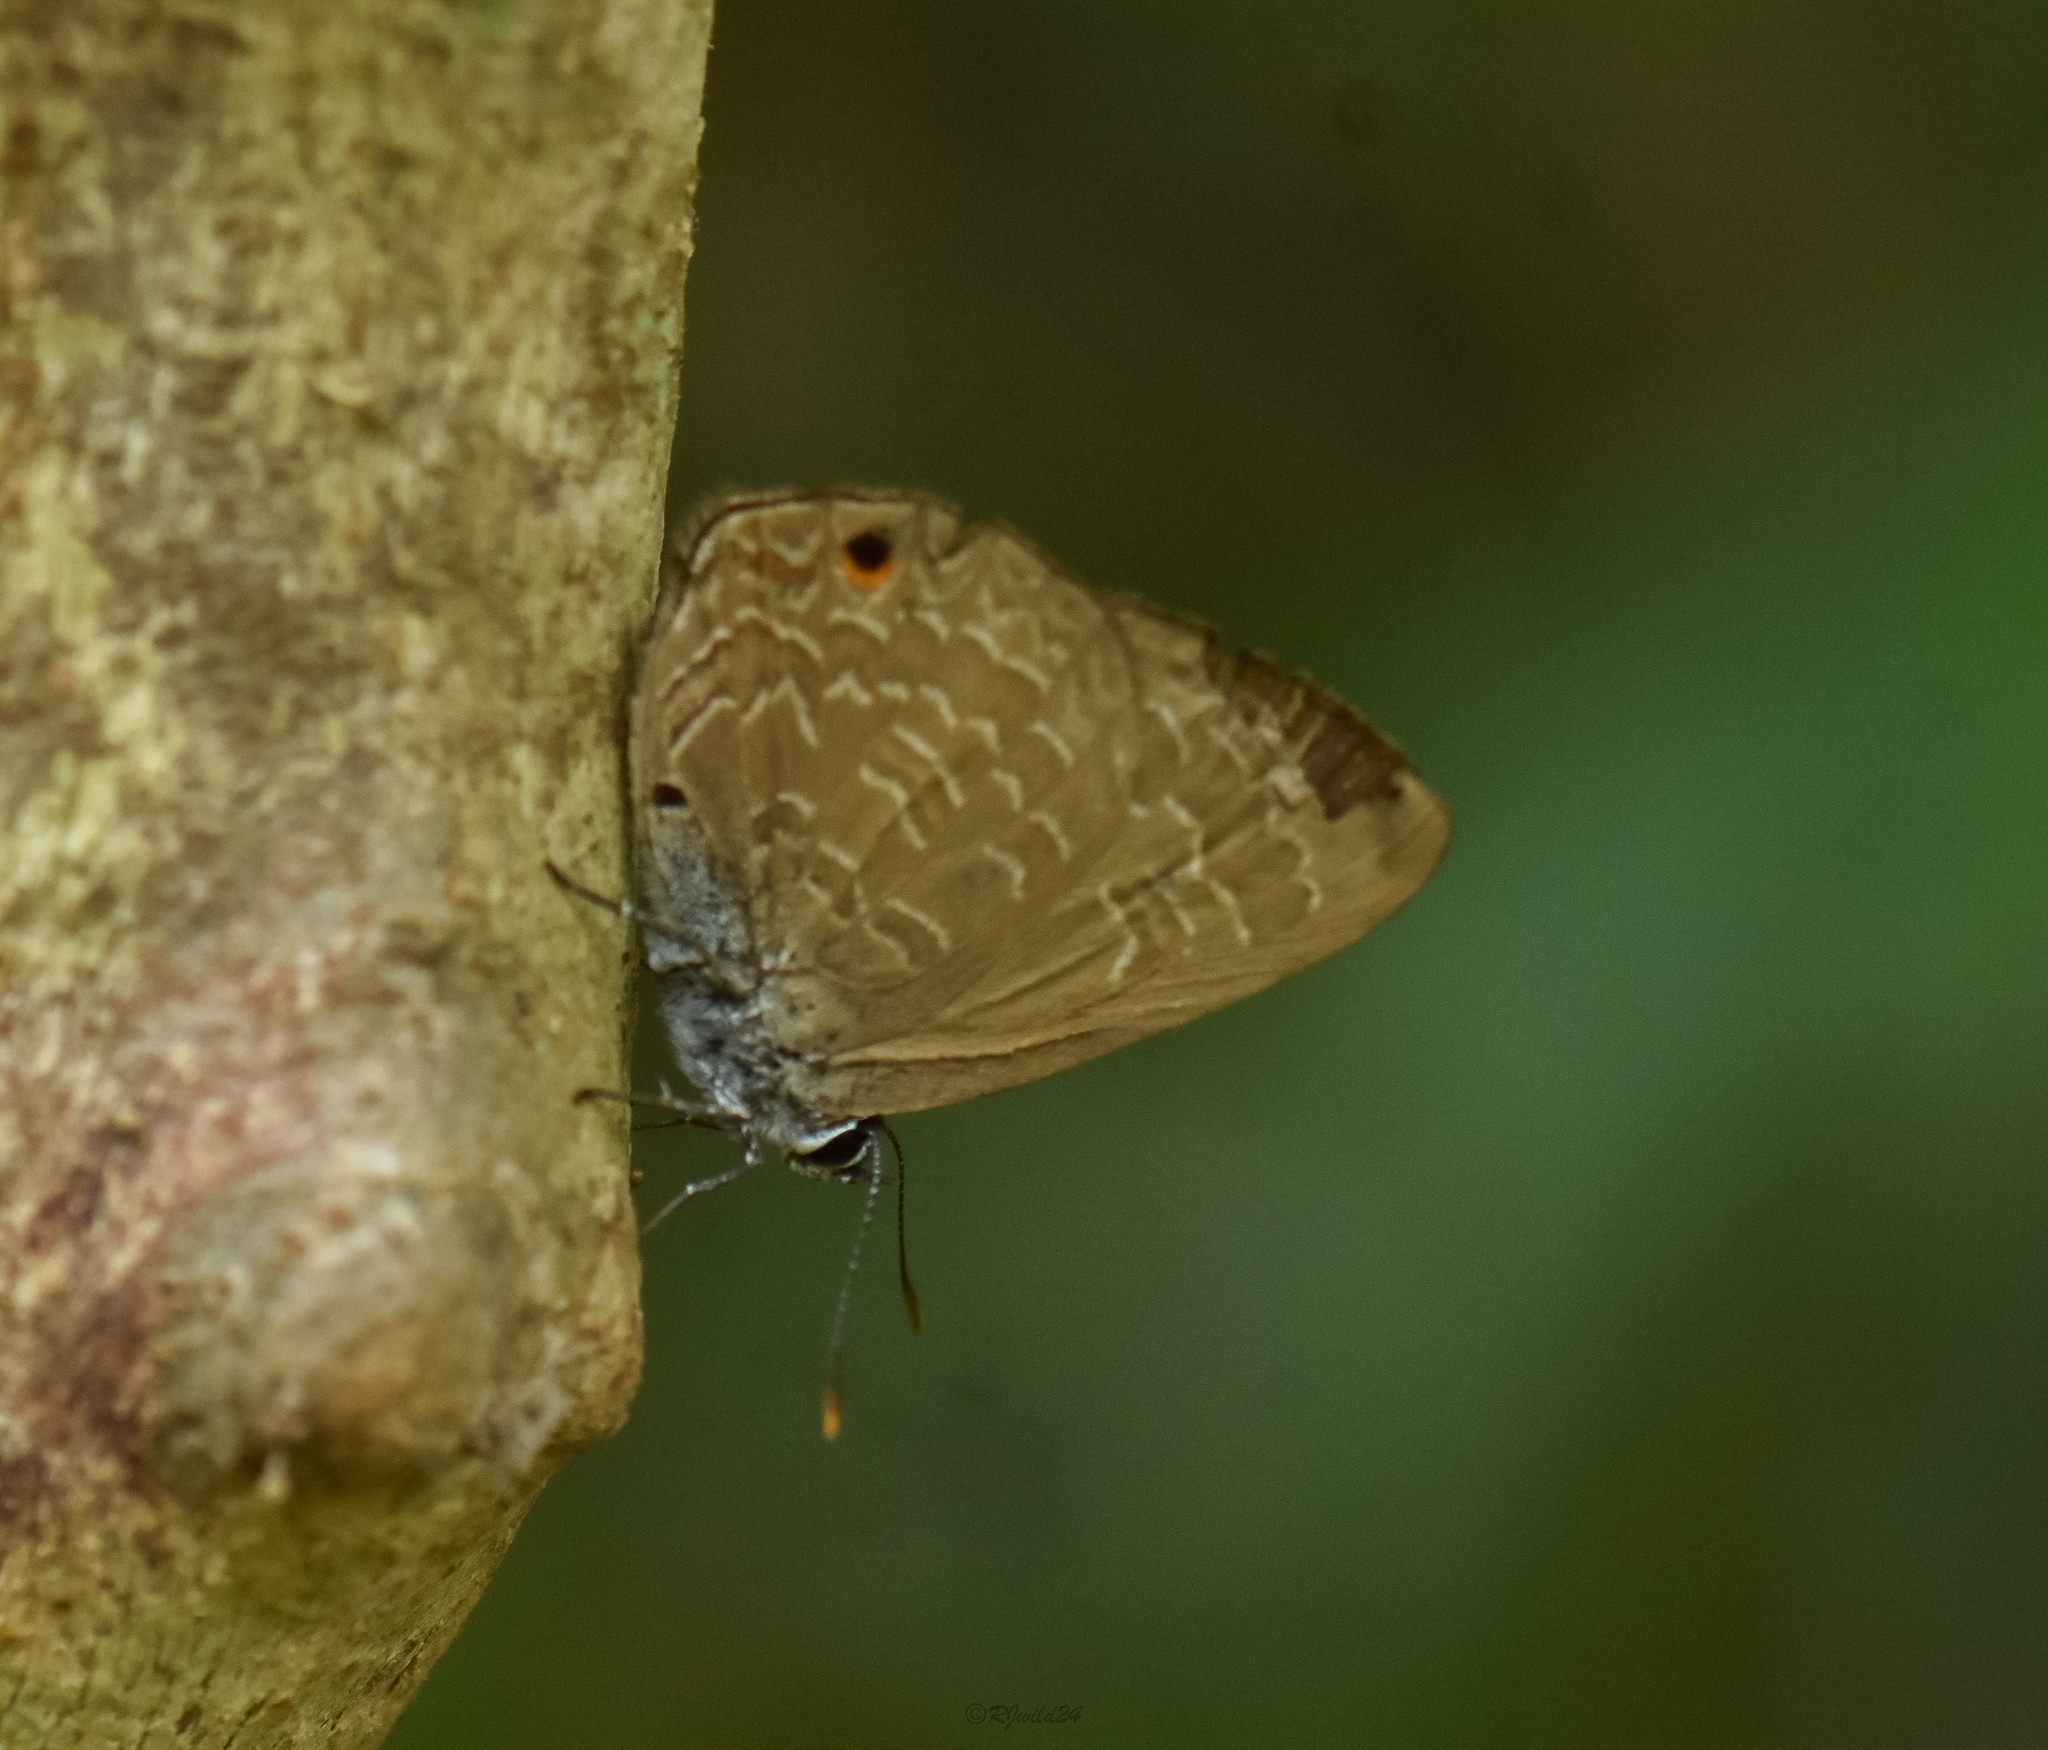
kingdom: Animalia
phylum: Arthropoda
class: Insecta
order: Lepidoptera
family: Lycaenidae
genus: Anthene
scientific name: Anthene emolus
